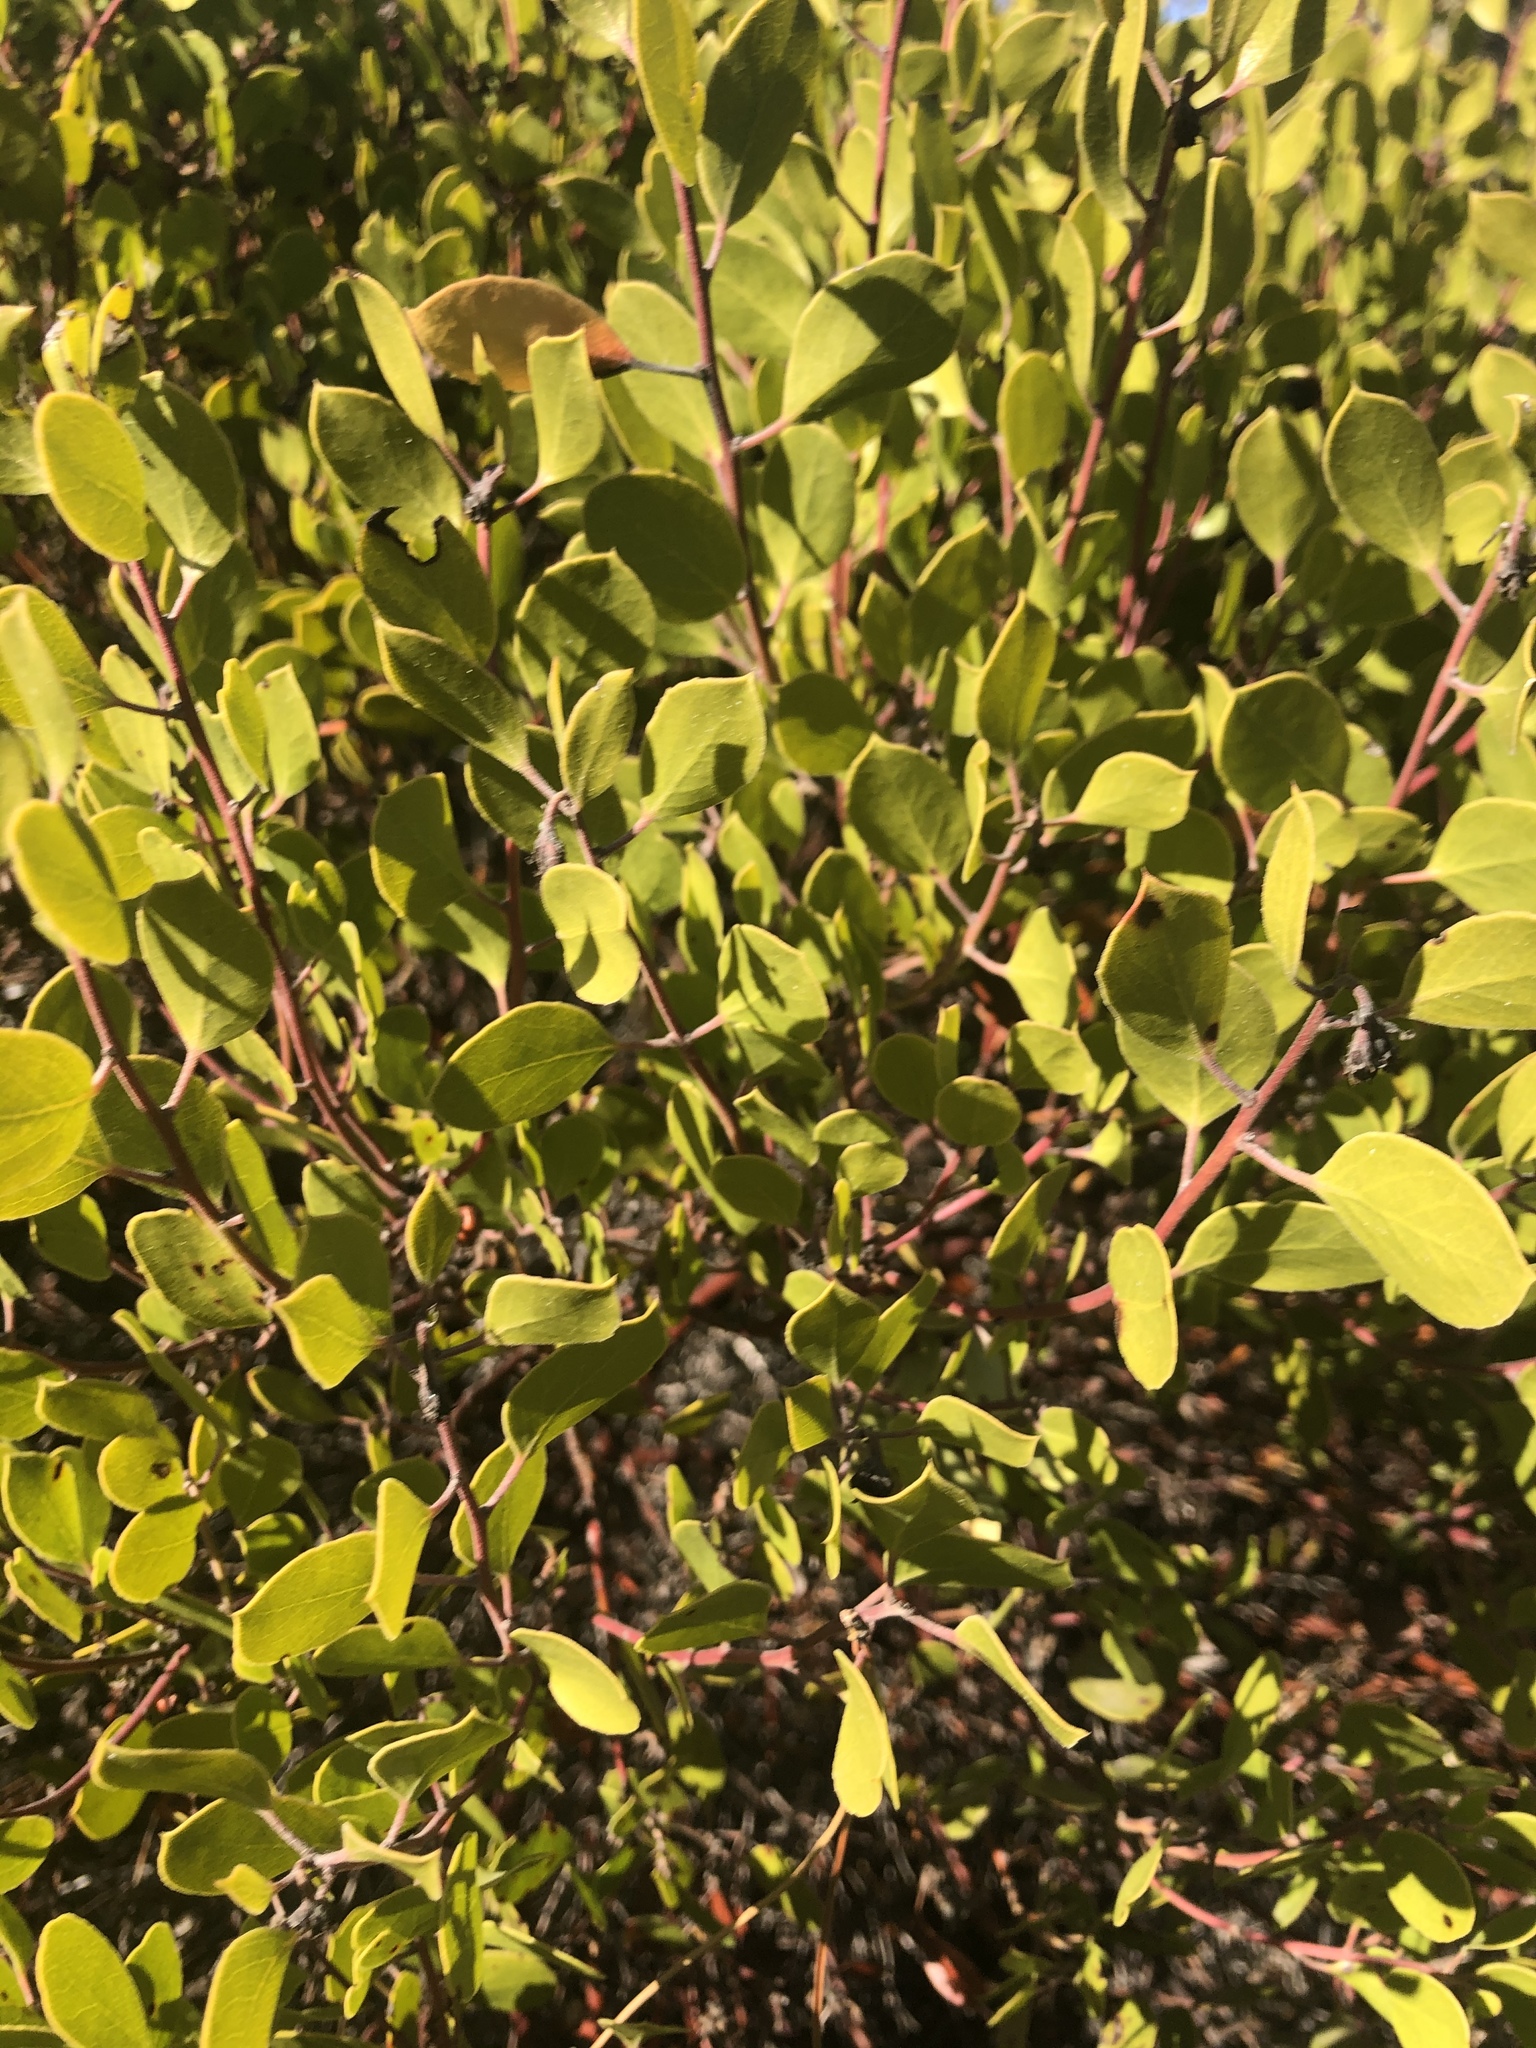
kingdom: Plantae
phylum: Tracheophyta
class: Magnoliopsida
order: Ericales
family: Ericaceae
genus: Arctostaphylos
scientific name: Arctostaphylos hookeri
